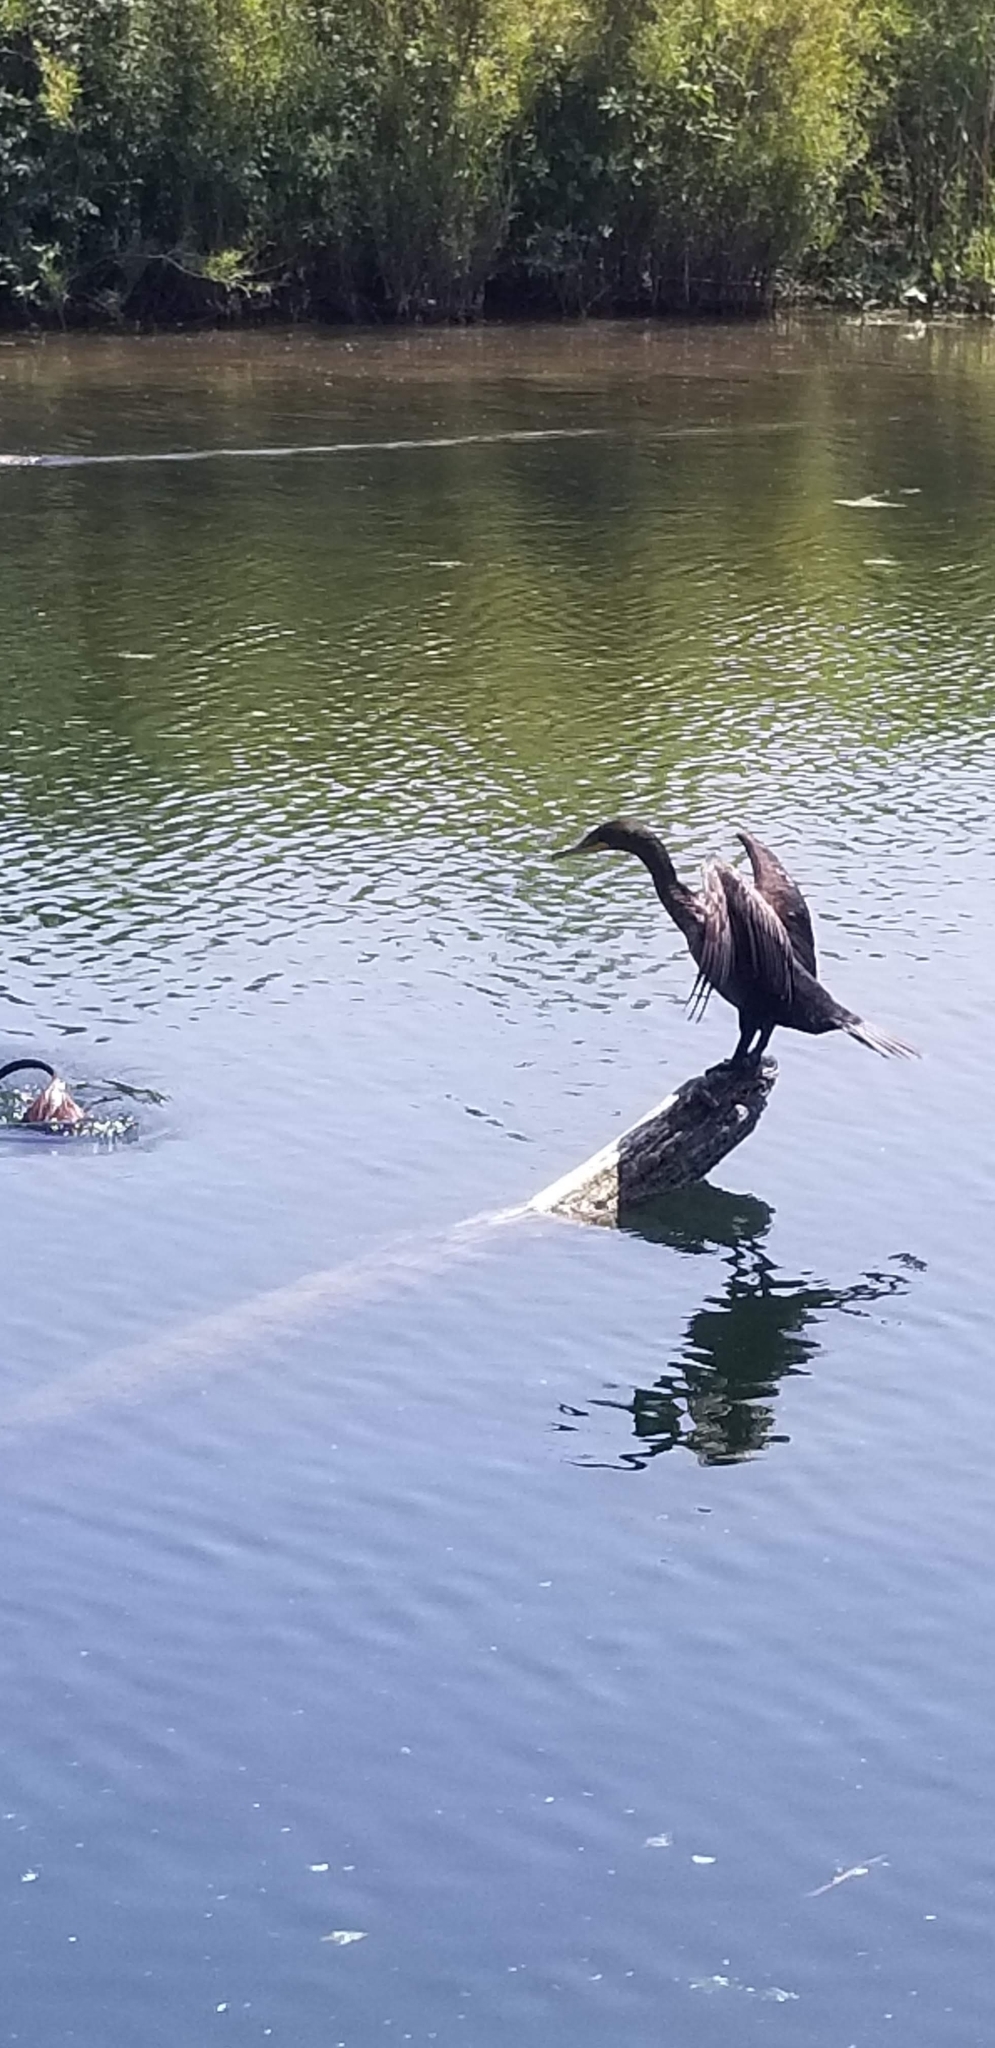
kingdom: Animalia
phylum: Chordata
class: Aves
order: Suliformes
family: Phalacrocoracidae
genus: Phalacrocorax
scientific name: Phalacrocorax auritus
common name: Double-crested cormorant
